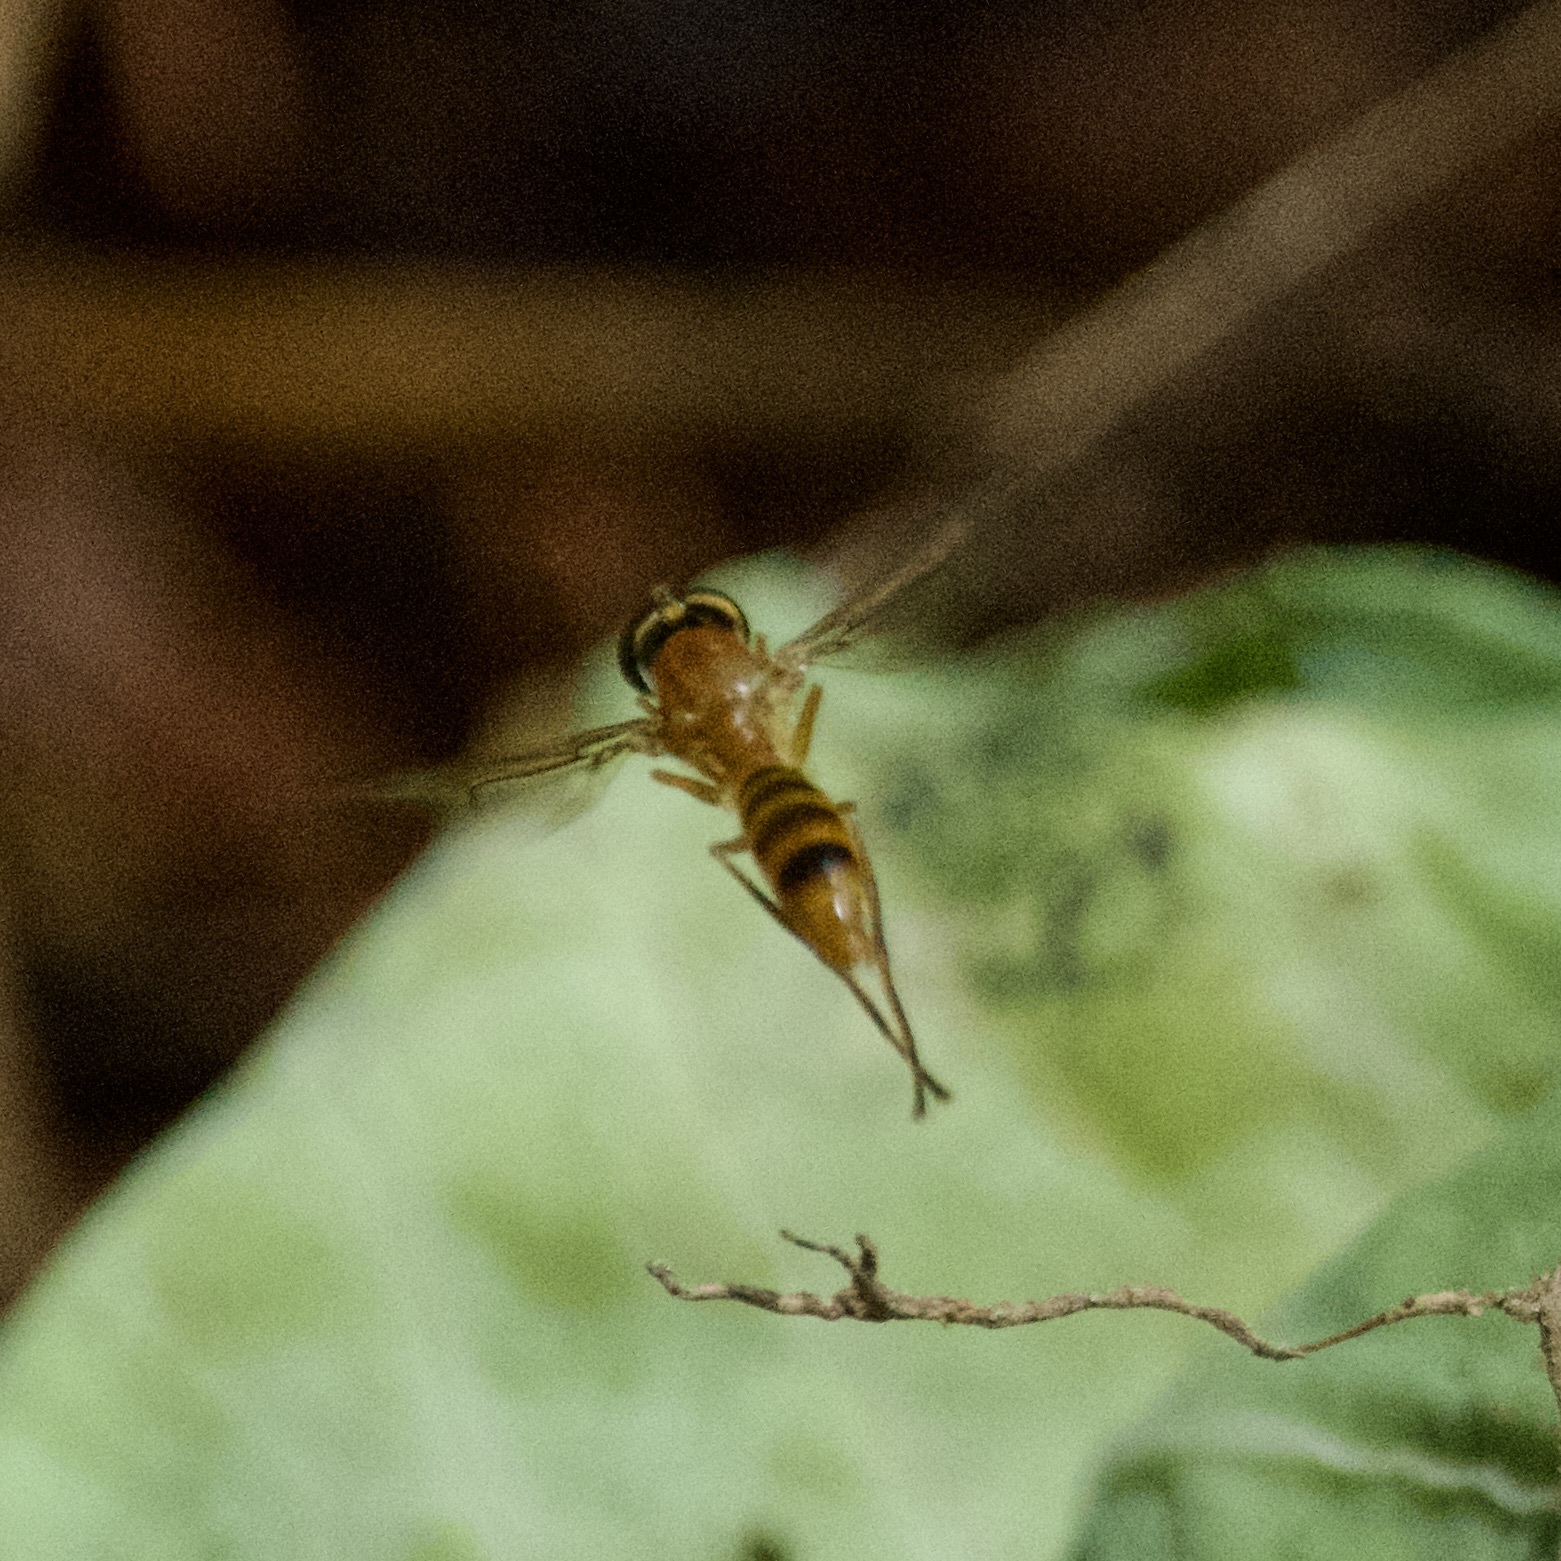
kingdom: Animalia
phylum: Arthropoda
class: Insecta
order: Diptera
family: Stratiomyidae
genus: Ptecticus
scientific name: Ptecticus trivittatus
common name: Compost fly
